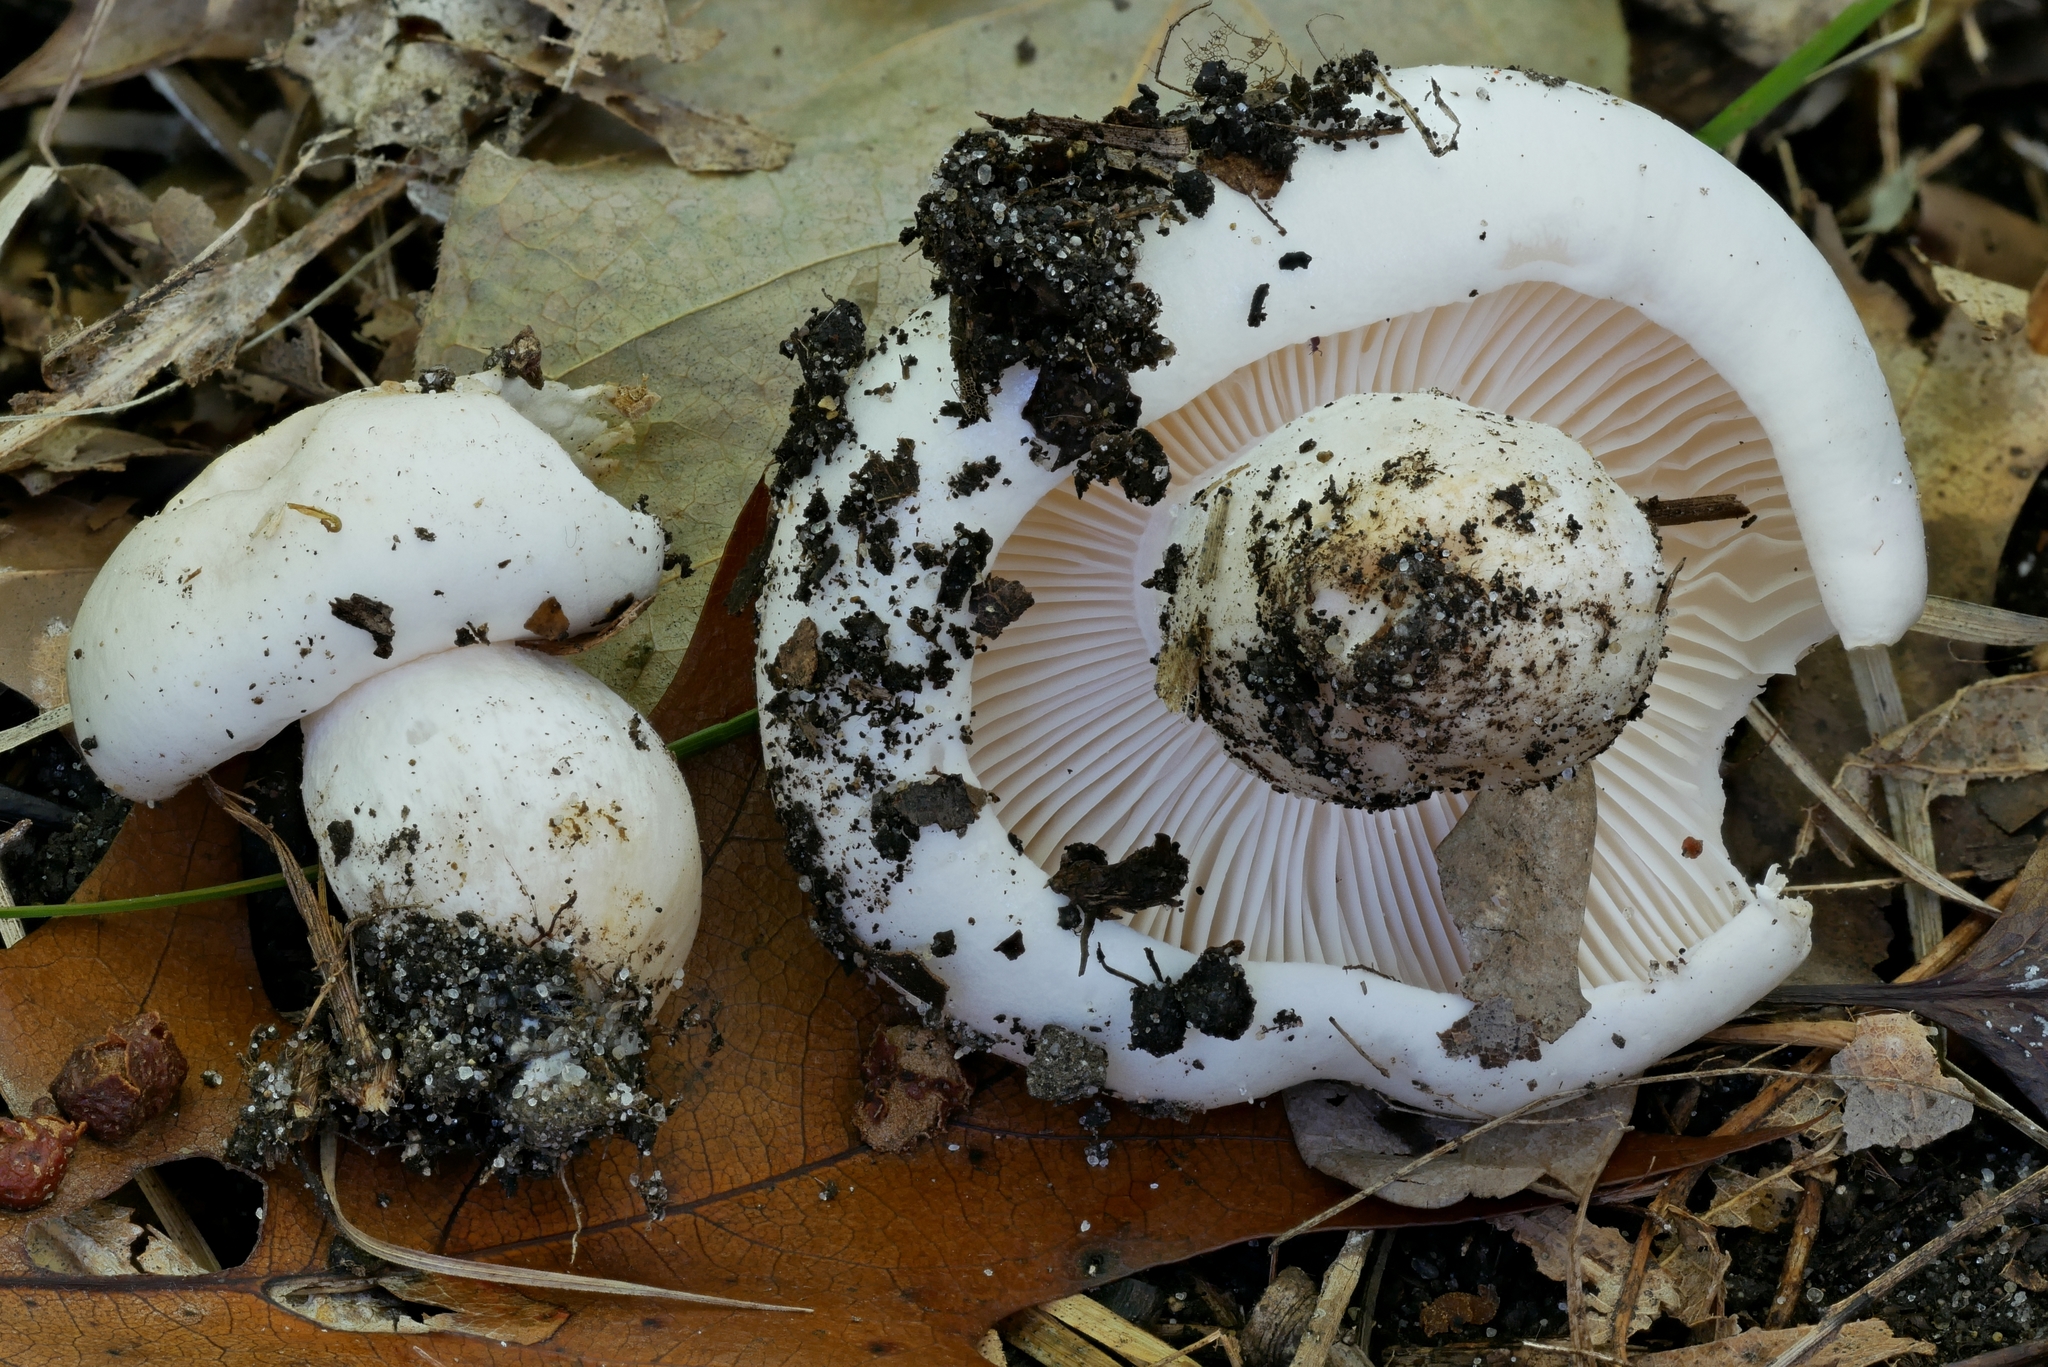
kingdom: Fungi
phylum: Basidiomycota
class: Agaricomycetes
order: Agaricales
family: Hygrophoraceae
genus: Hygrophorus
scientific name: Hygrophorus sordidus
